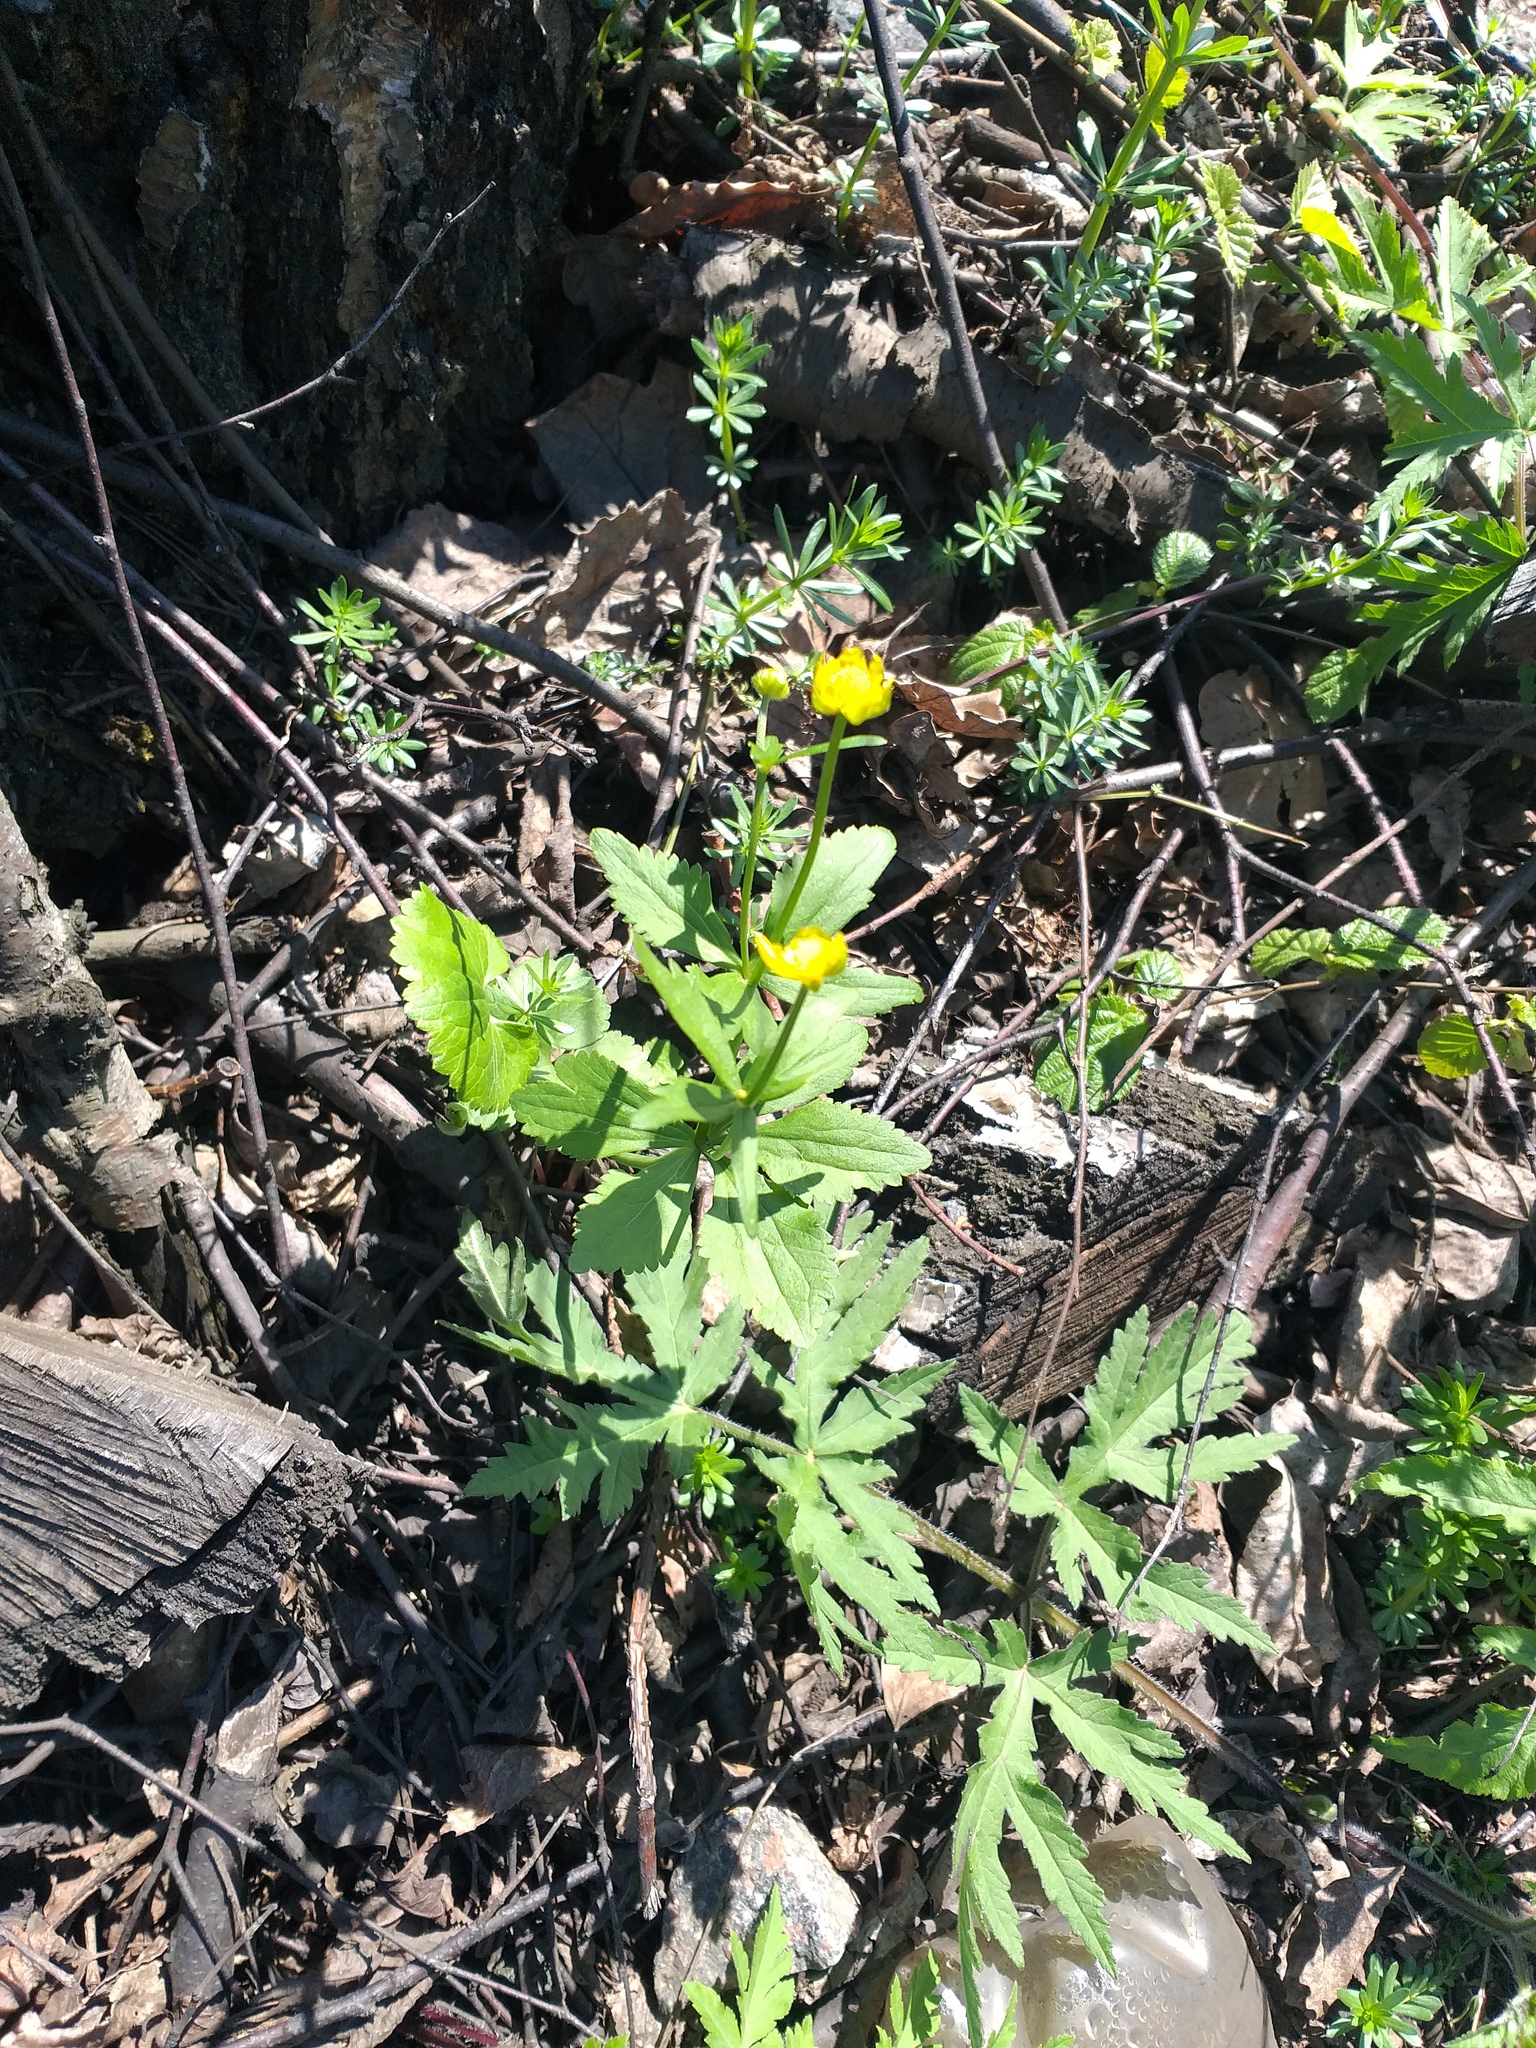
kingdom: Plantae
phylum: Tracheophyta
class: Magnoliopsida
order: Ranunculales
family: Ranunculaceae
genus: Ranunculus
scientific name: Ranunculus cassubicus
